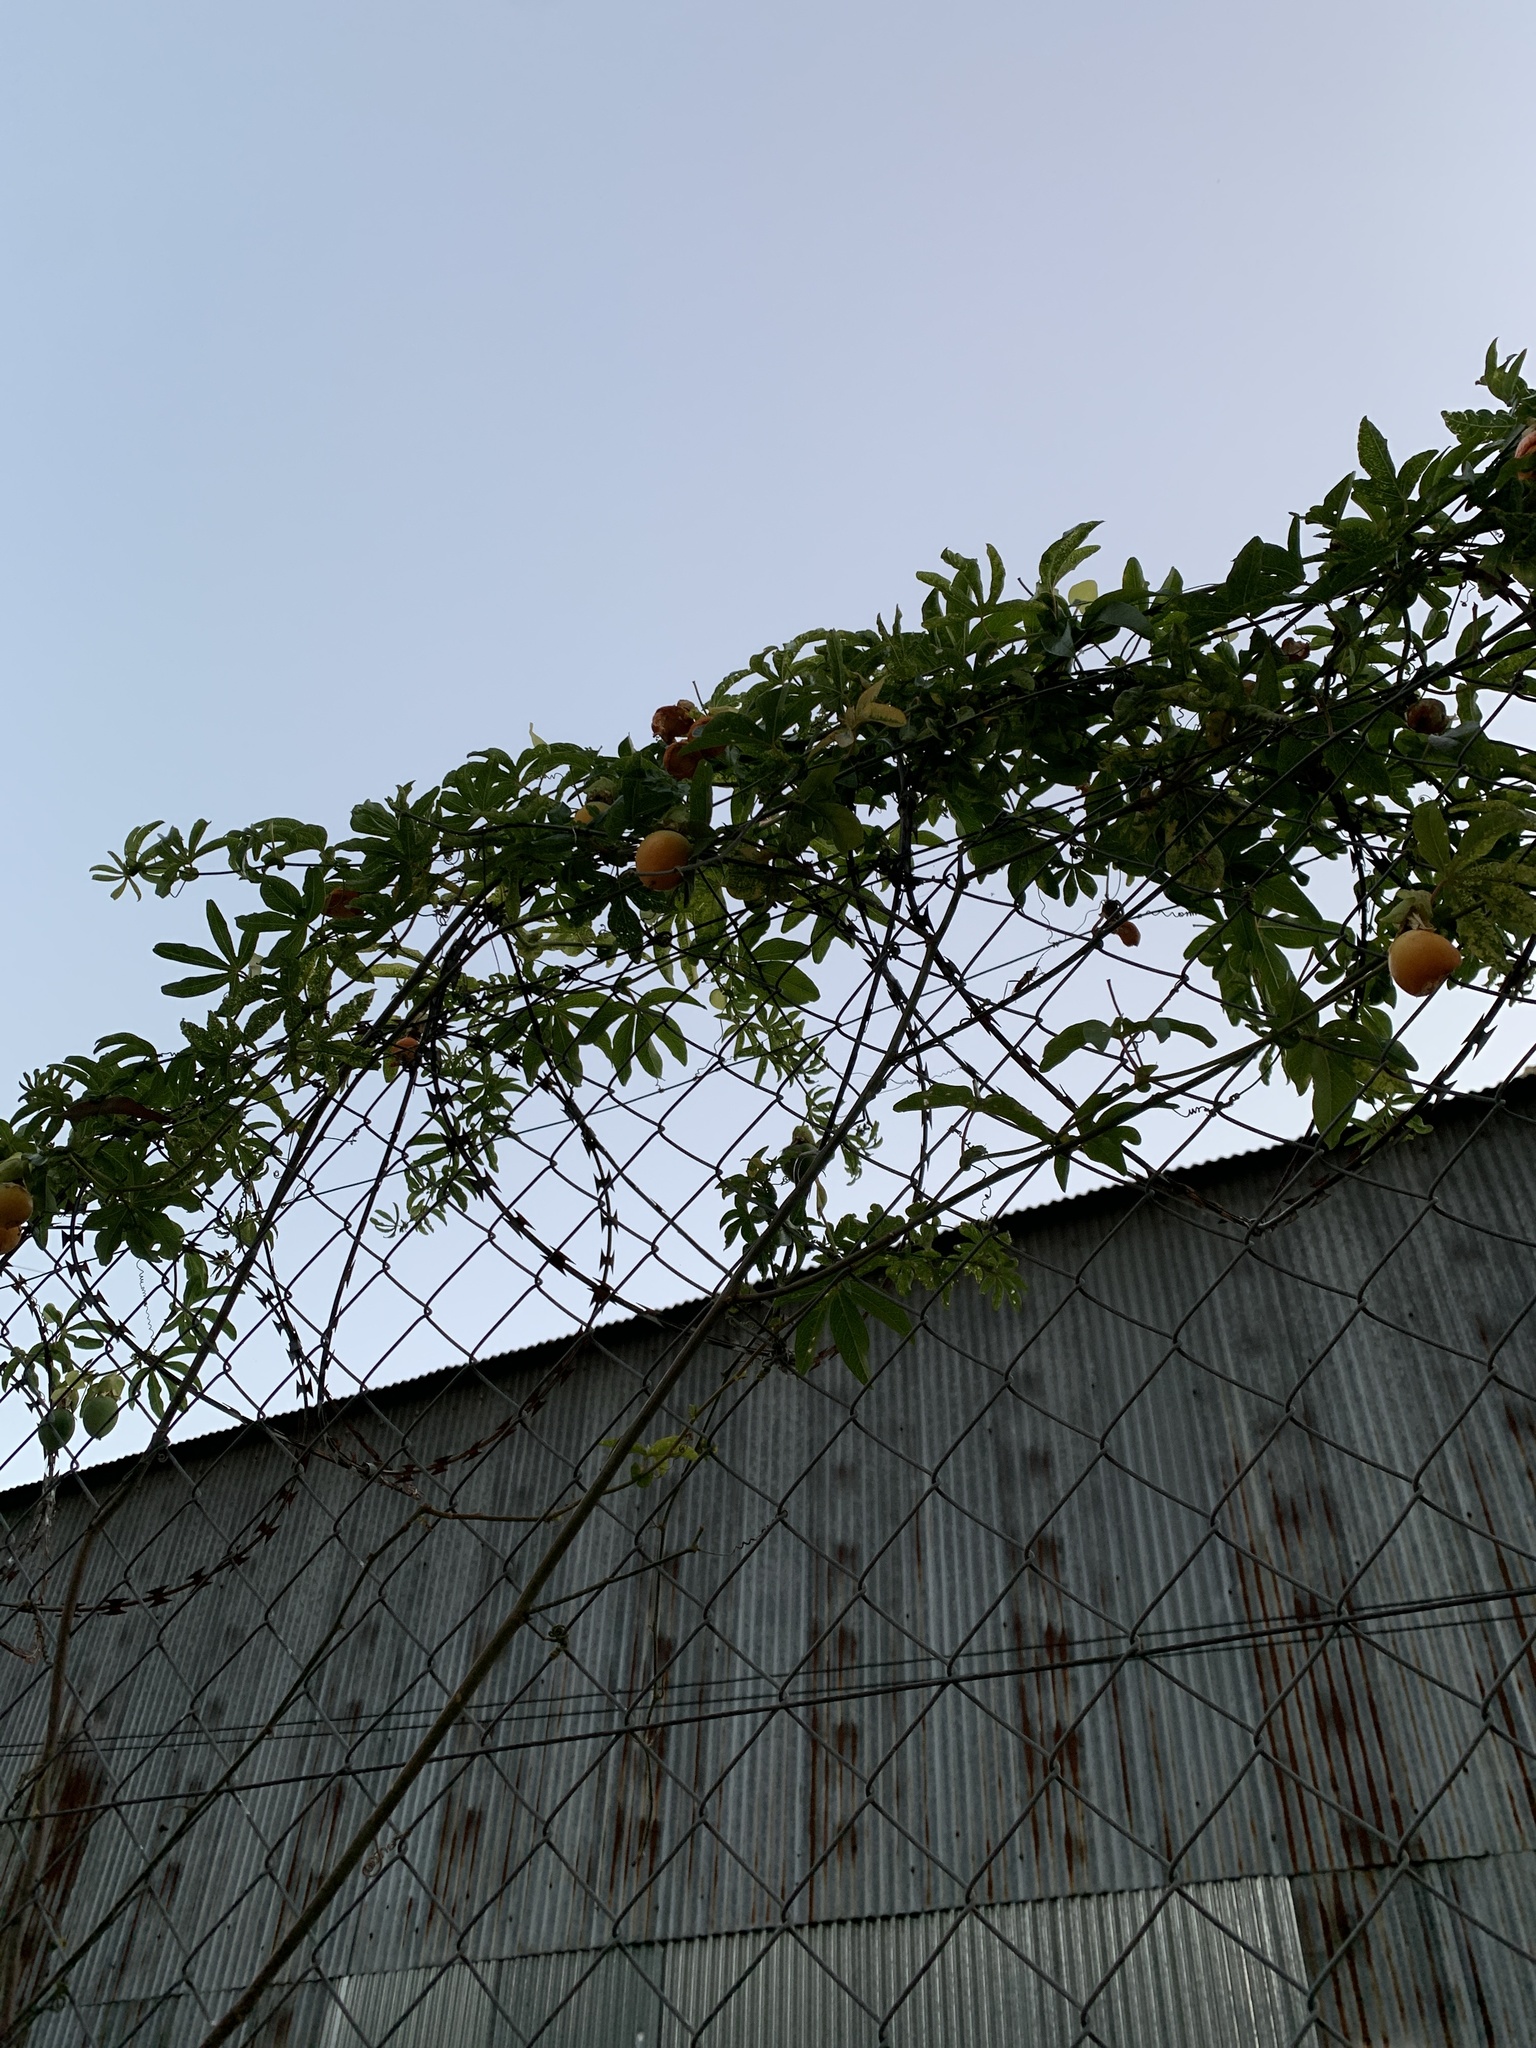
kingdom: Plantae
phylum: Tracheophyta
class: Magnoliopsida
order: Malpighiales
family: Passifloraceae
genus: Passiflora
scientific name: Passiflora caerulea
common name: Blue passionflower
